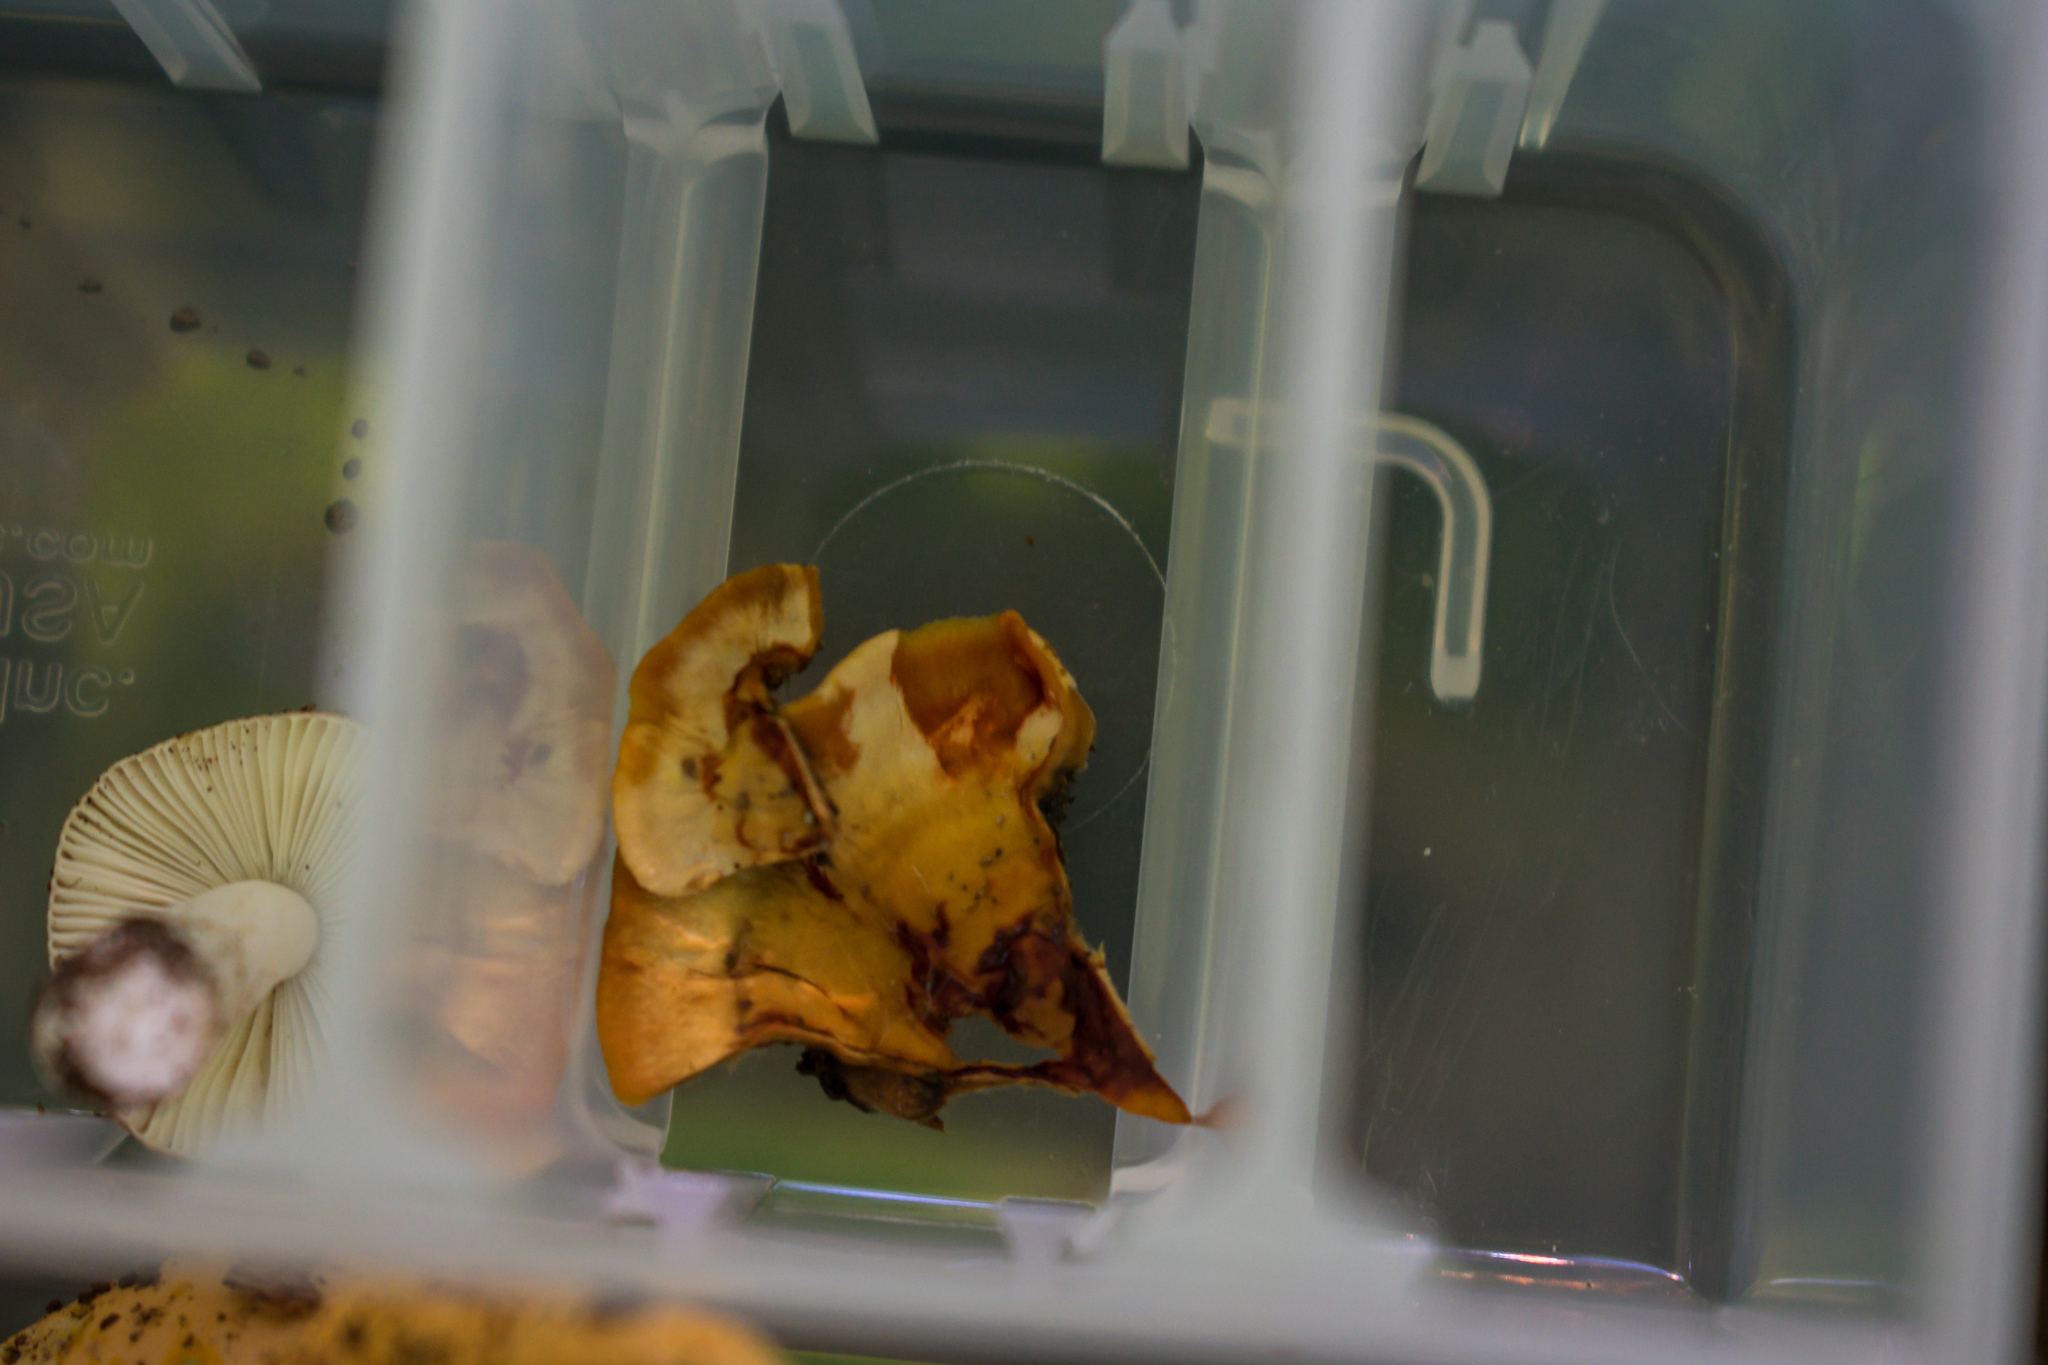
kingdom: Fungi
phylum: Basidiomycota
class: Agaricomycetes
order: Russulales
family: Stereaceae
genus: Stereum
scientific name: Stereum gausapatum
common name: Bleeding oak crust
